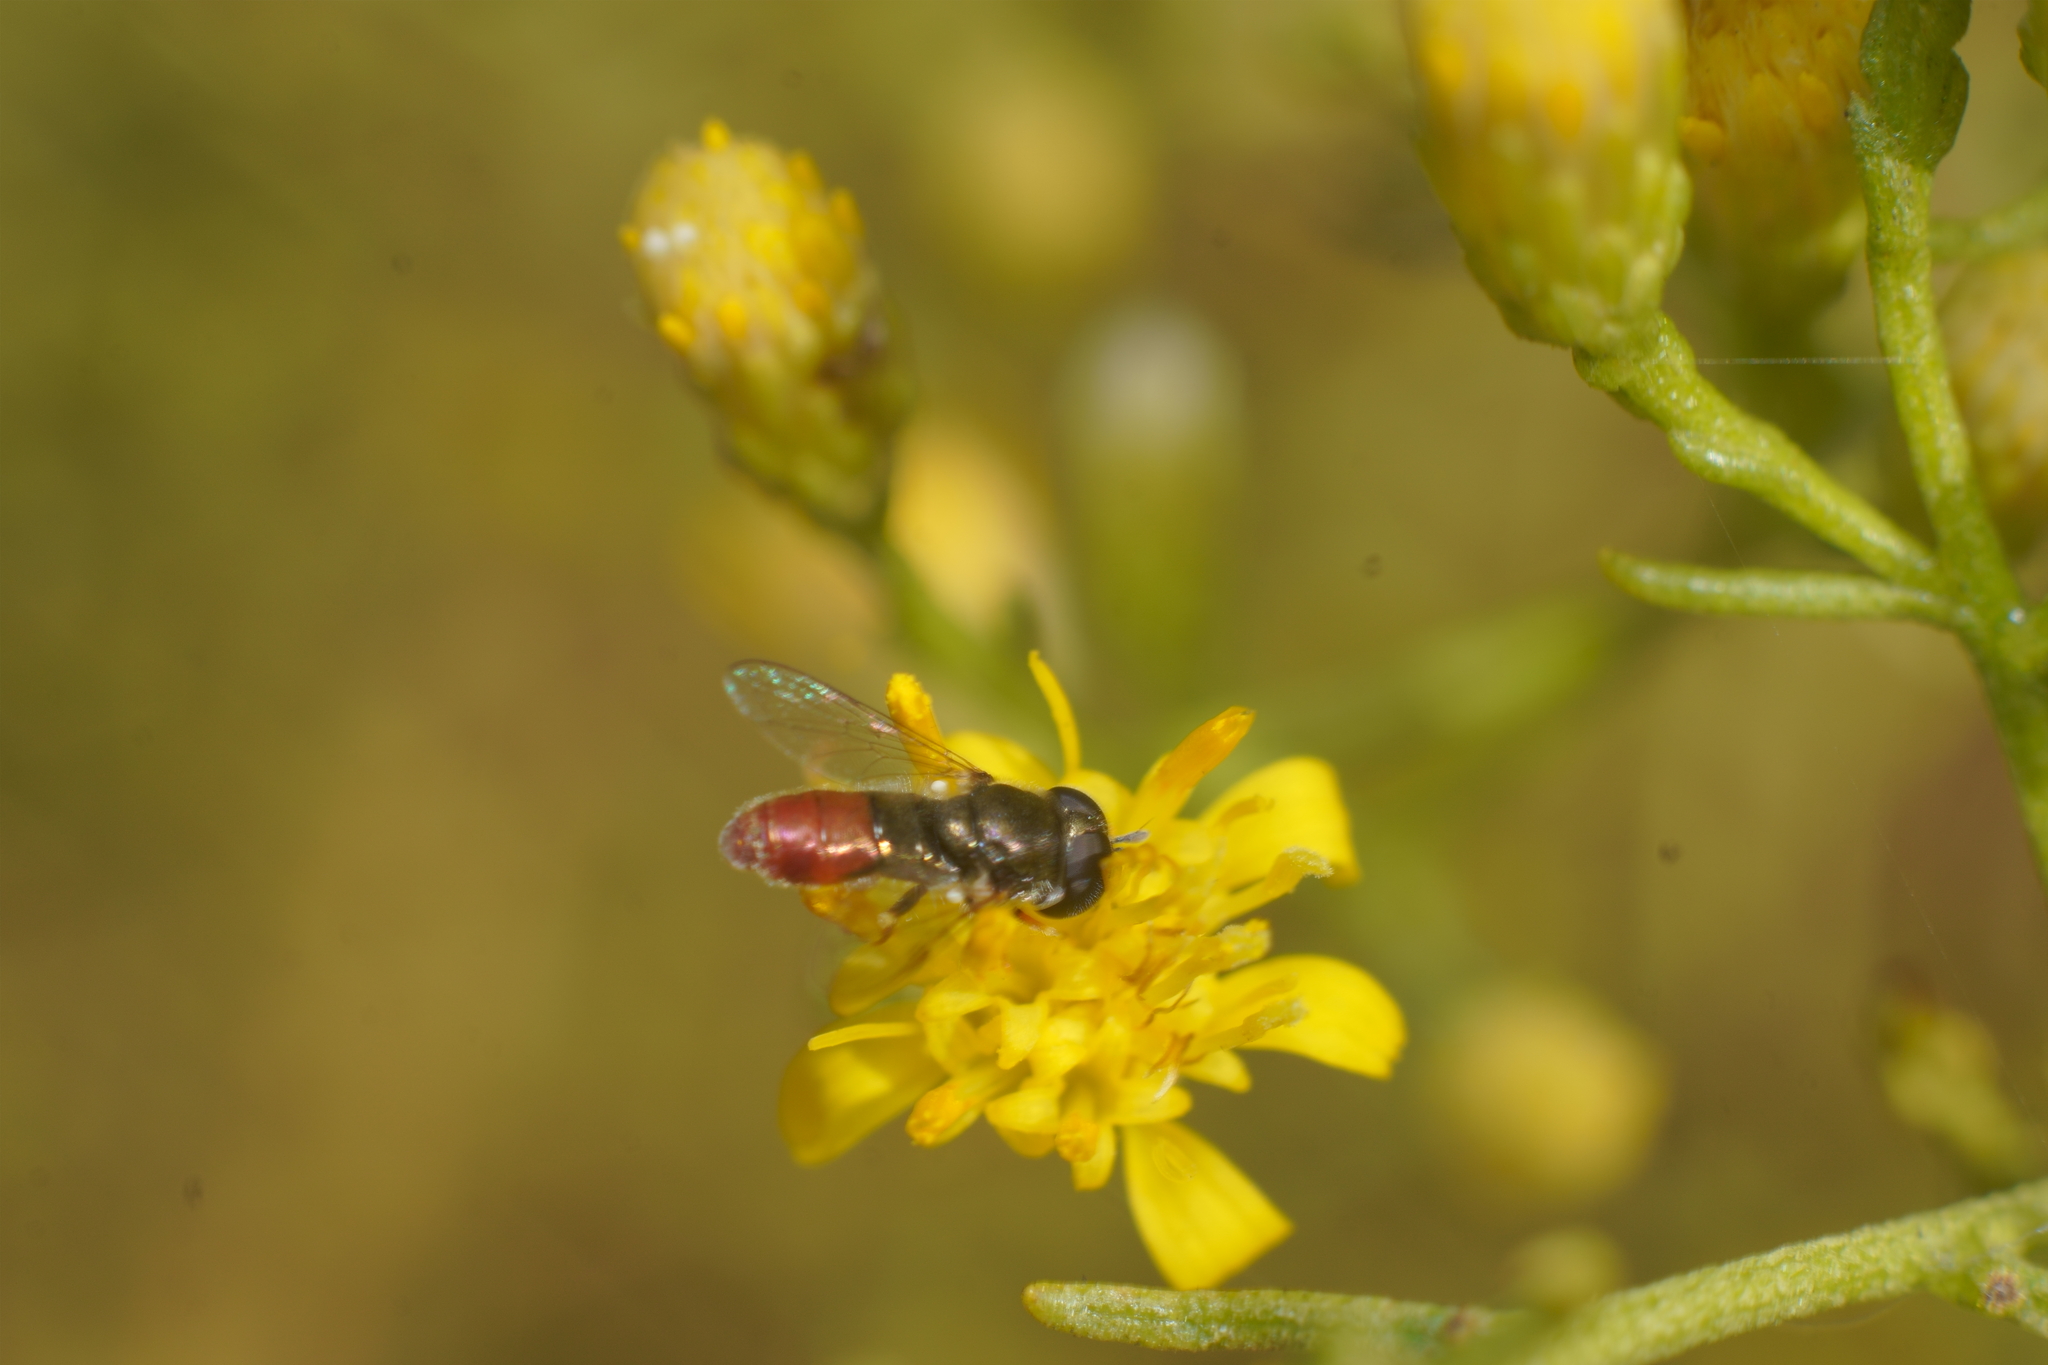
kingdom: Animalia
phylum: Arthropoda
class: Insecta
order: Diptera
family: Syrphidae
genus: Paragus
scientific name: Paragus haemorrhous
